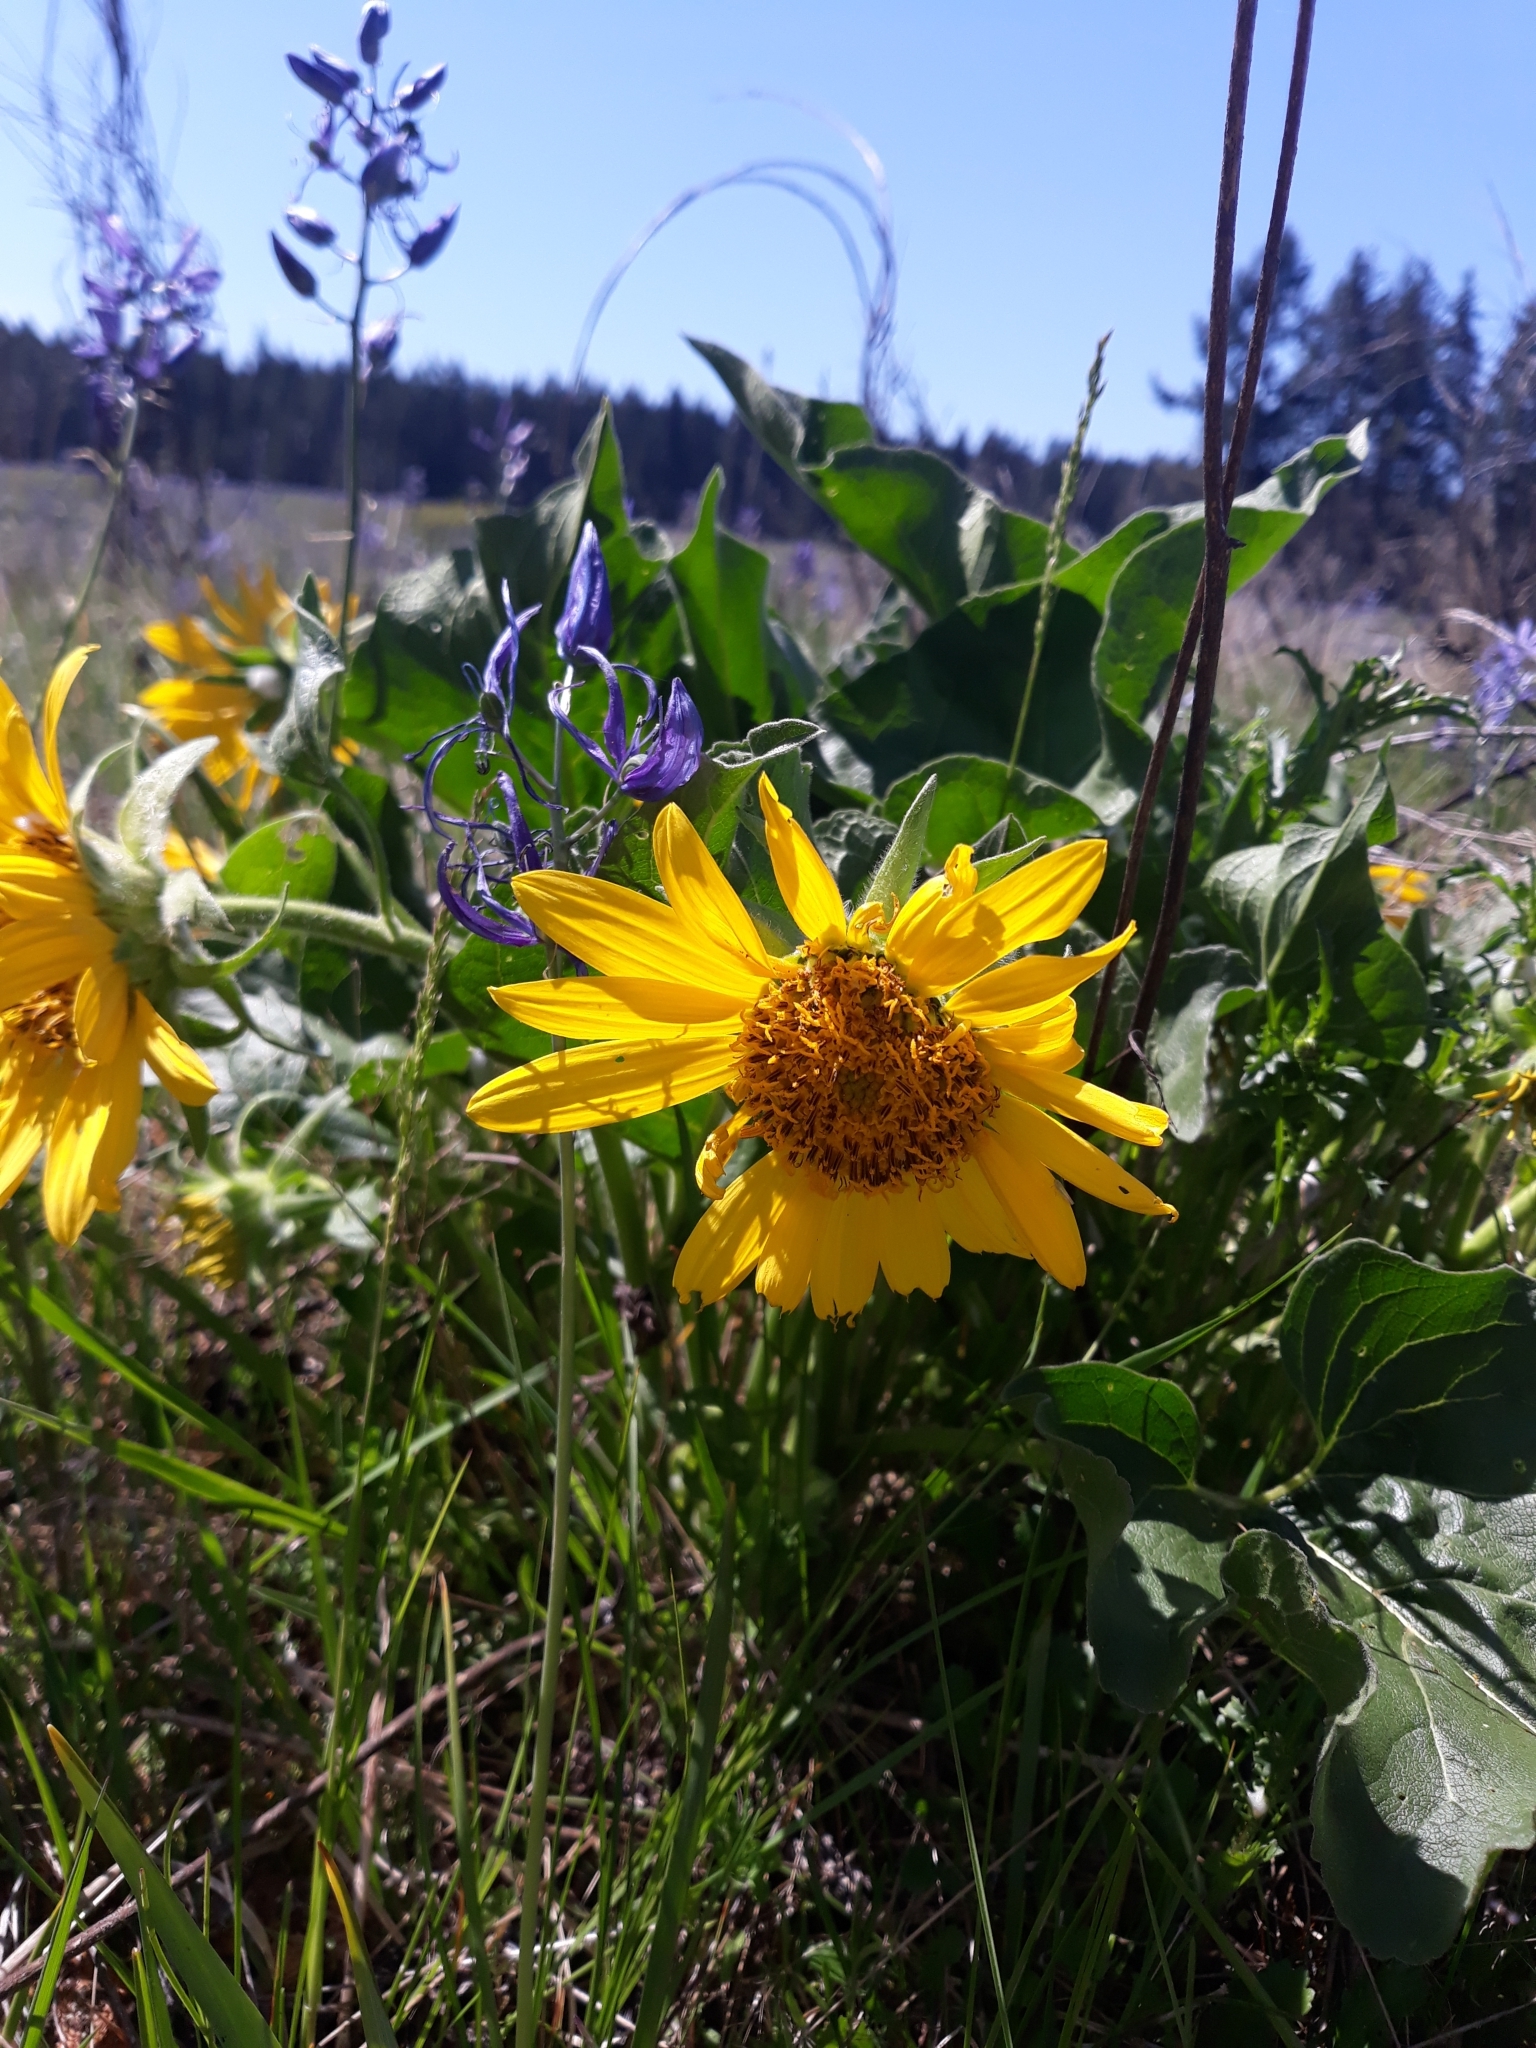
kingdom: Plantae
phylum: Tracheophyta
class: Magnoliopsida
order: Asterales
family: Asteraceae
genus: Balsamorhiza
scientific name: Balsamorhiza deltoidea
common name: Deltoid balsamroot
